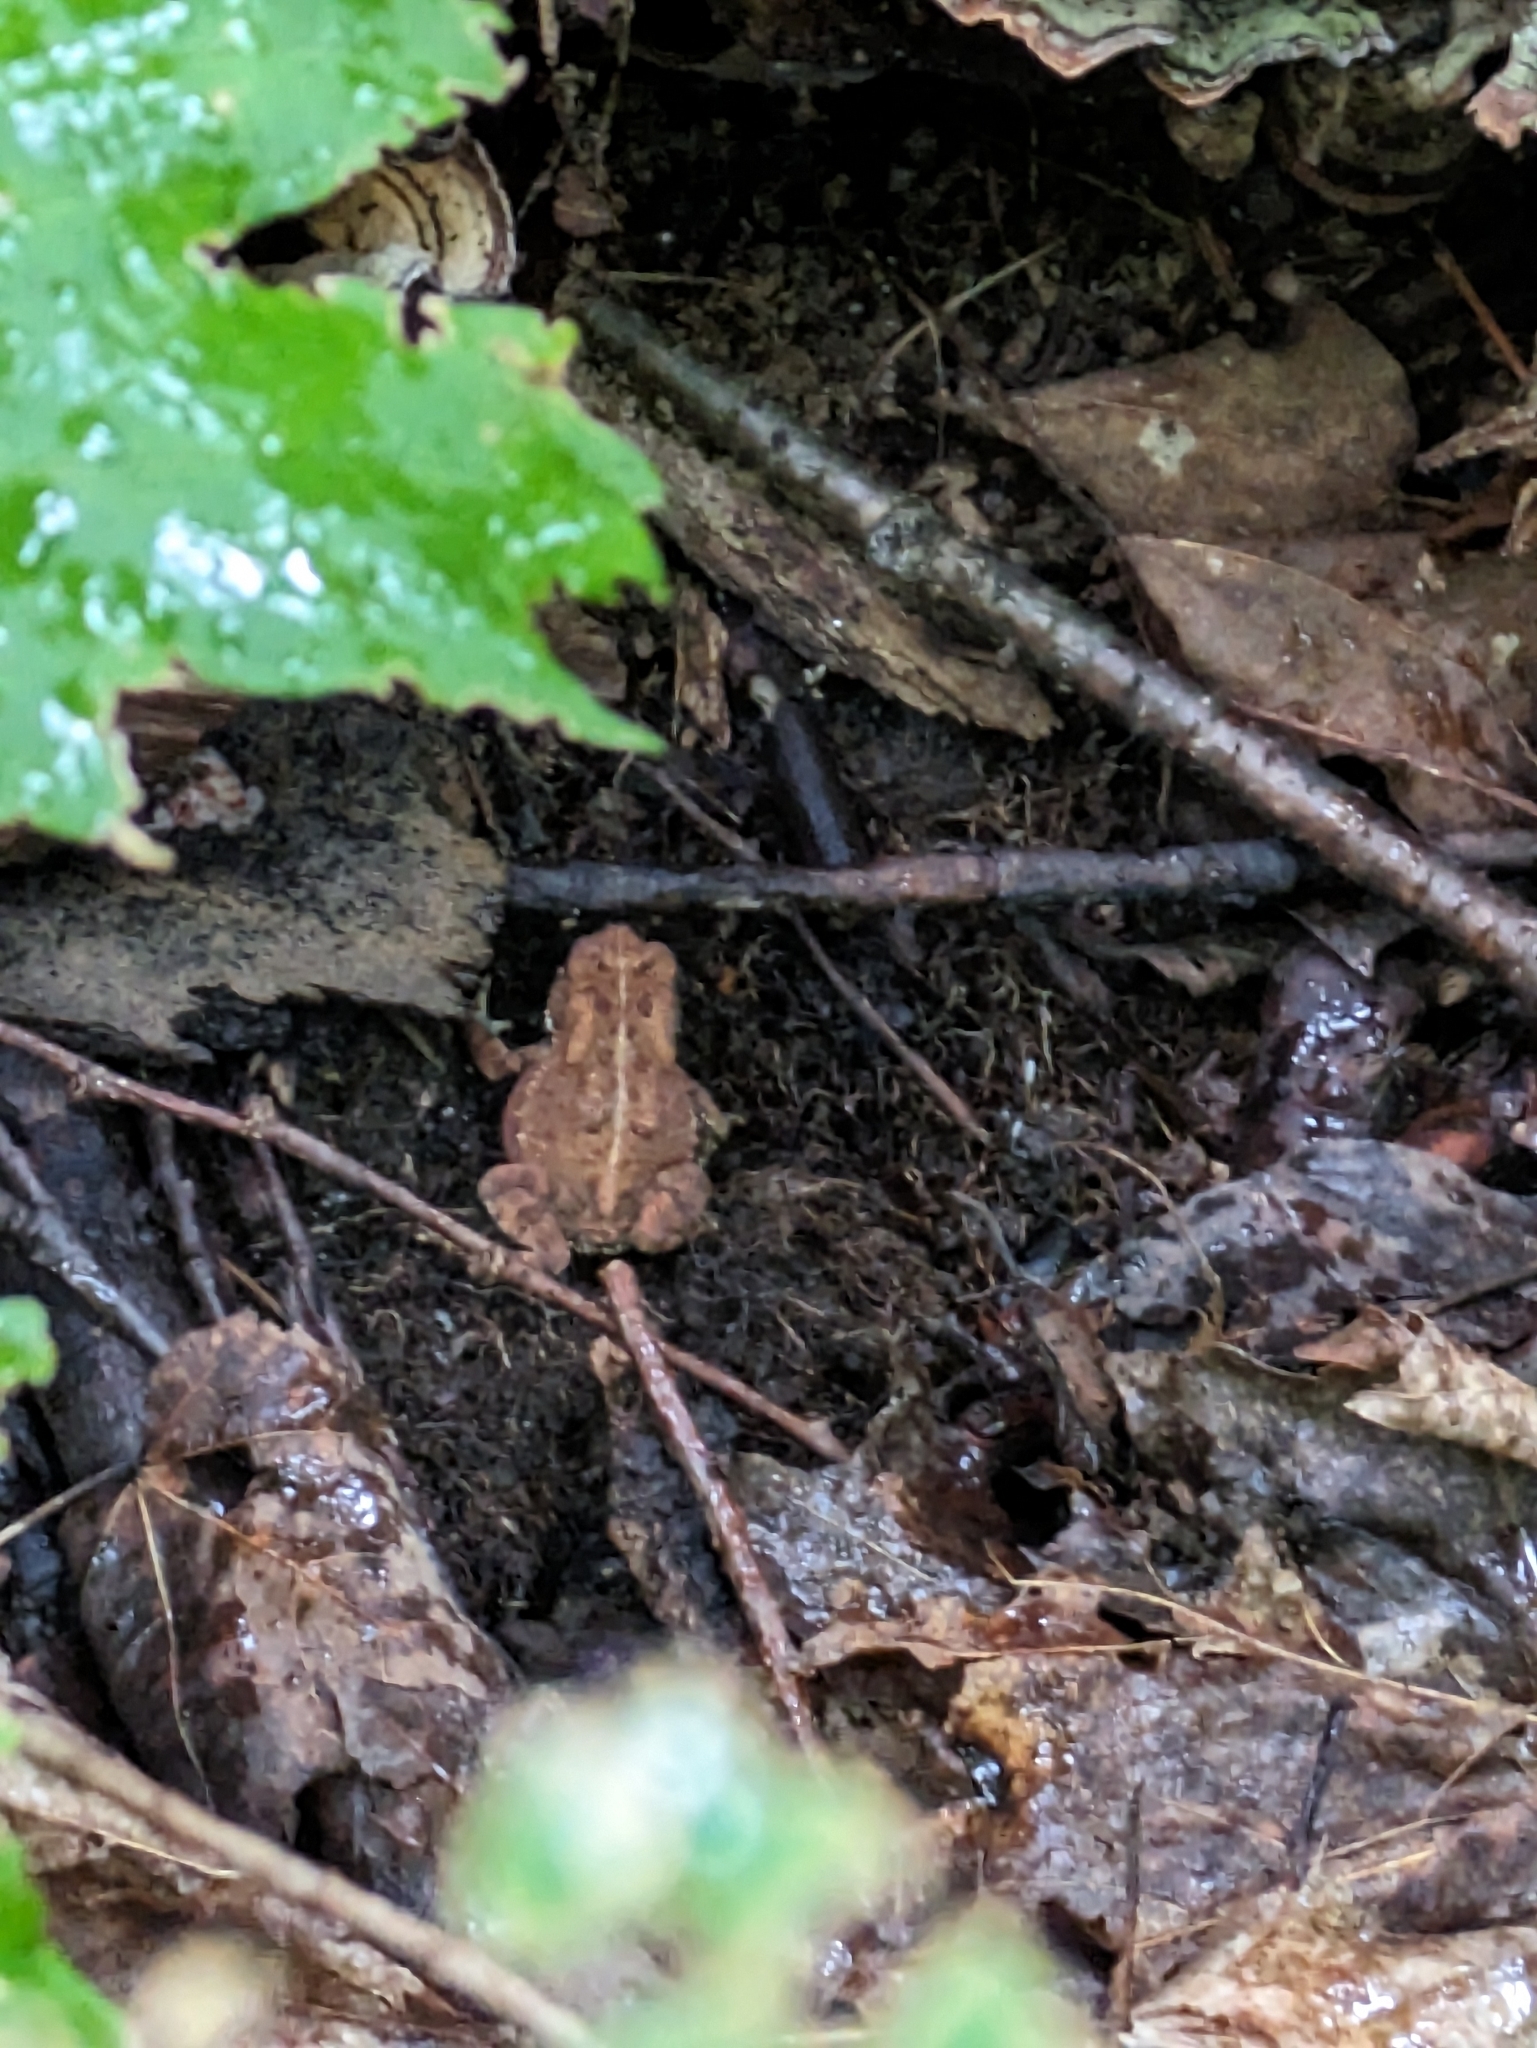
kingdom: Animalia
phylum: Chordata
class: Amphibia
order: Anura
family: Bufonidae
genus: Anaxyrus
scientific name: Anaxyrus americanus
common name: American toad
